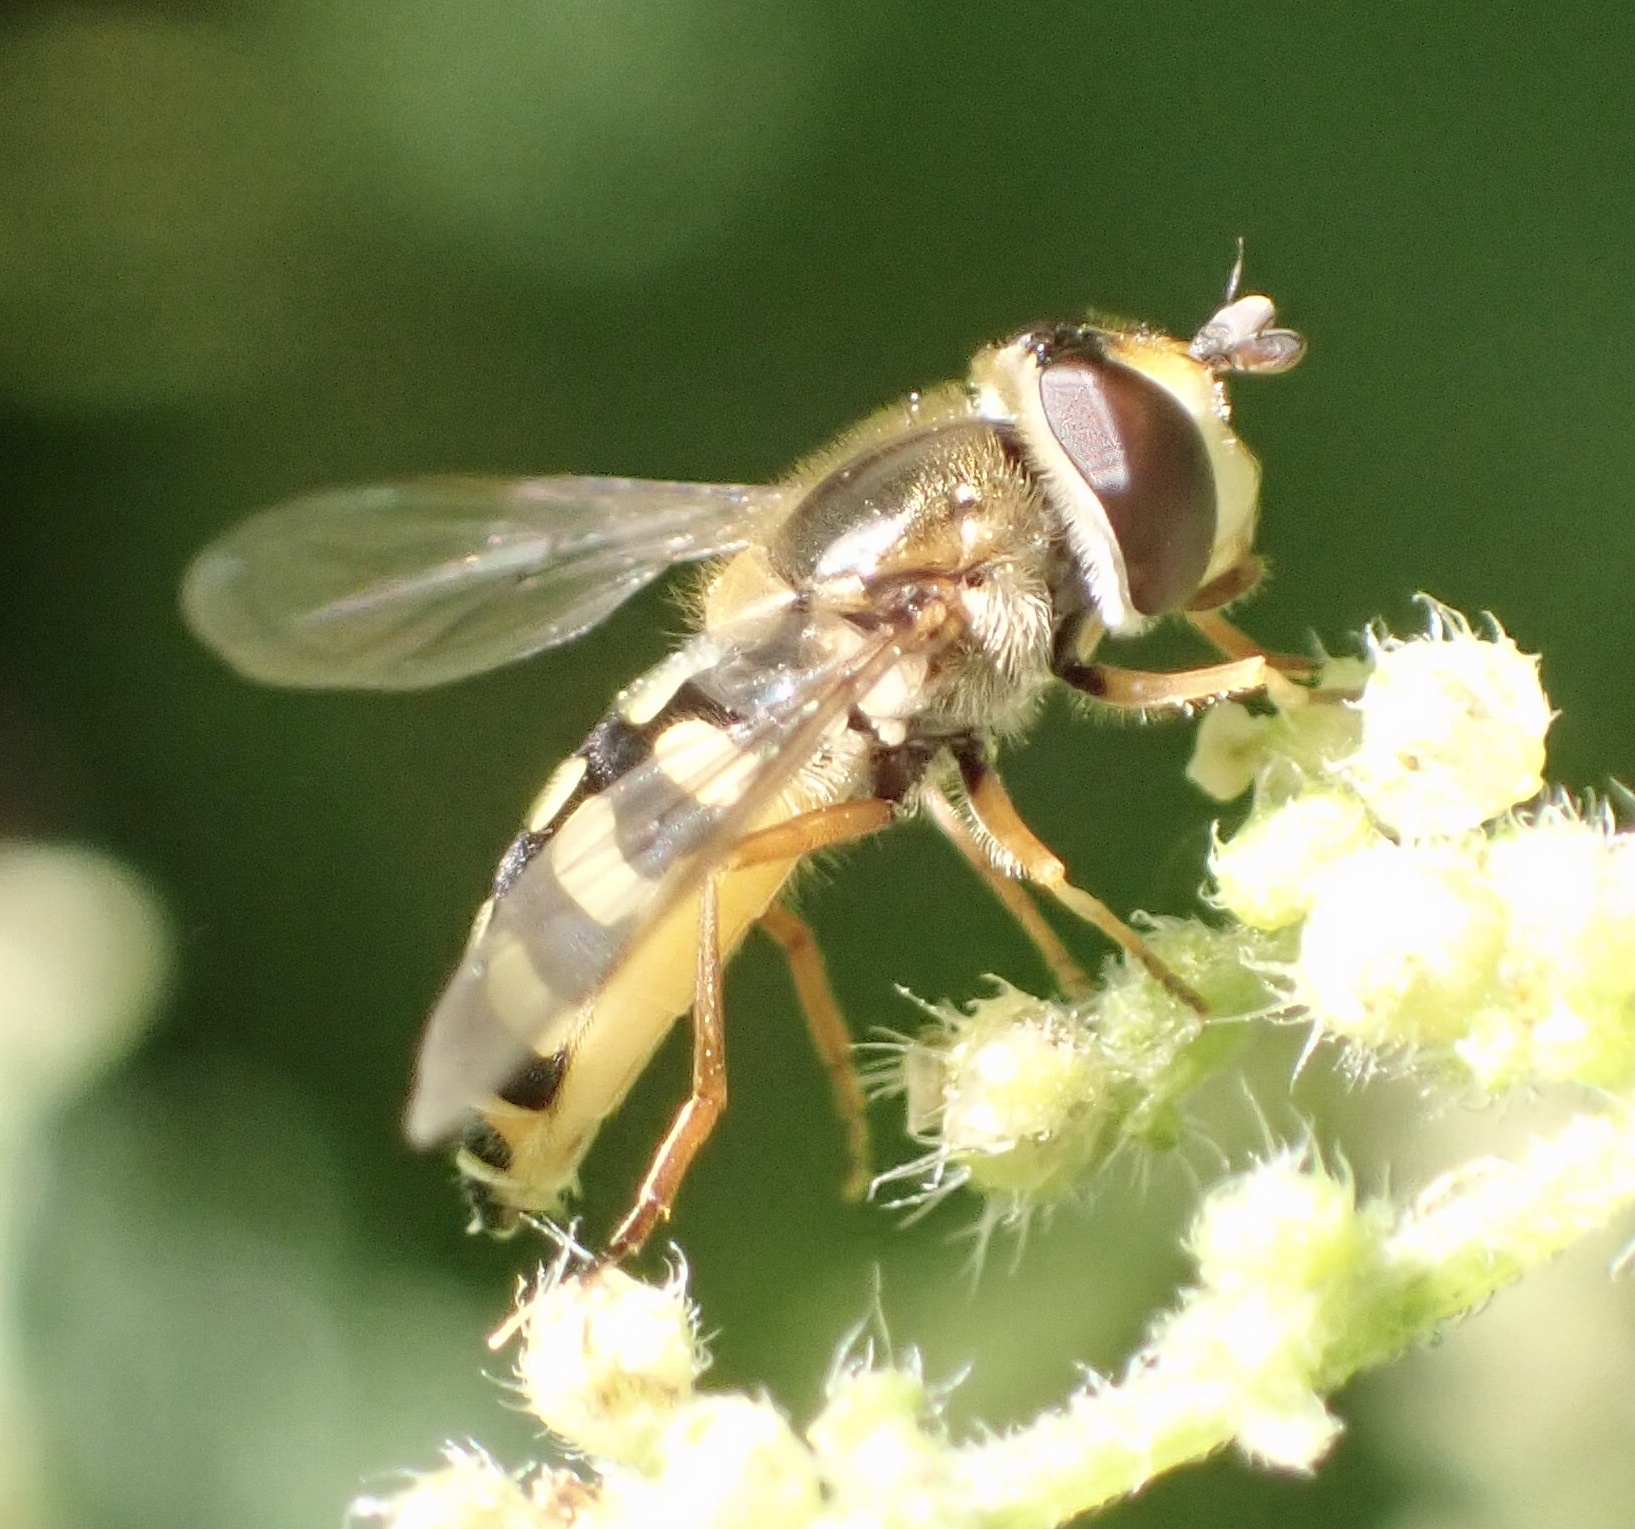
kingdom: Animalia
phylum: Arthropoda
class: Insecta
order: Diptera
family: Syrphidae
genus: Eupeodes
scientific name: Eupeodes corollae
